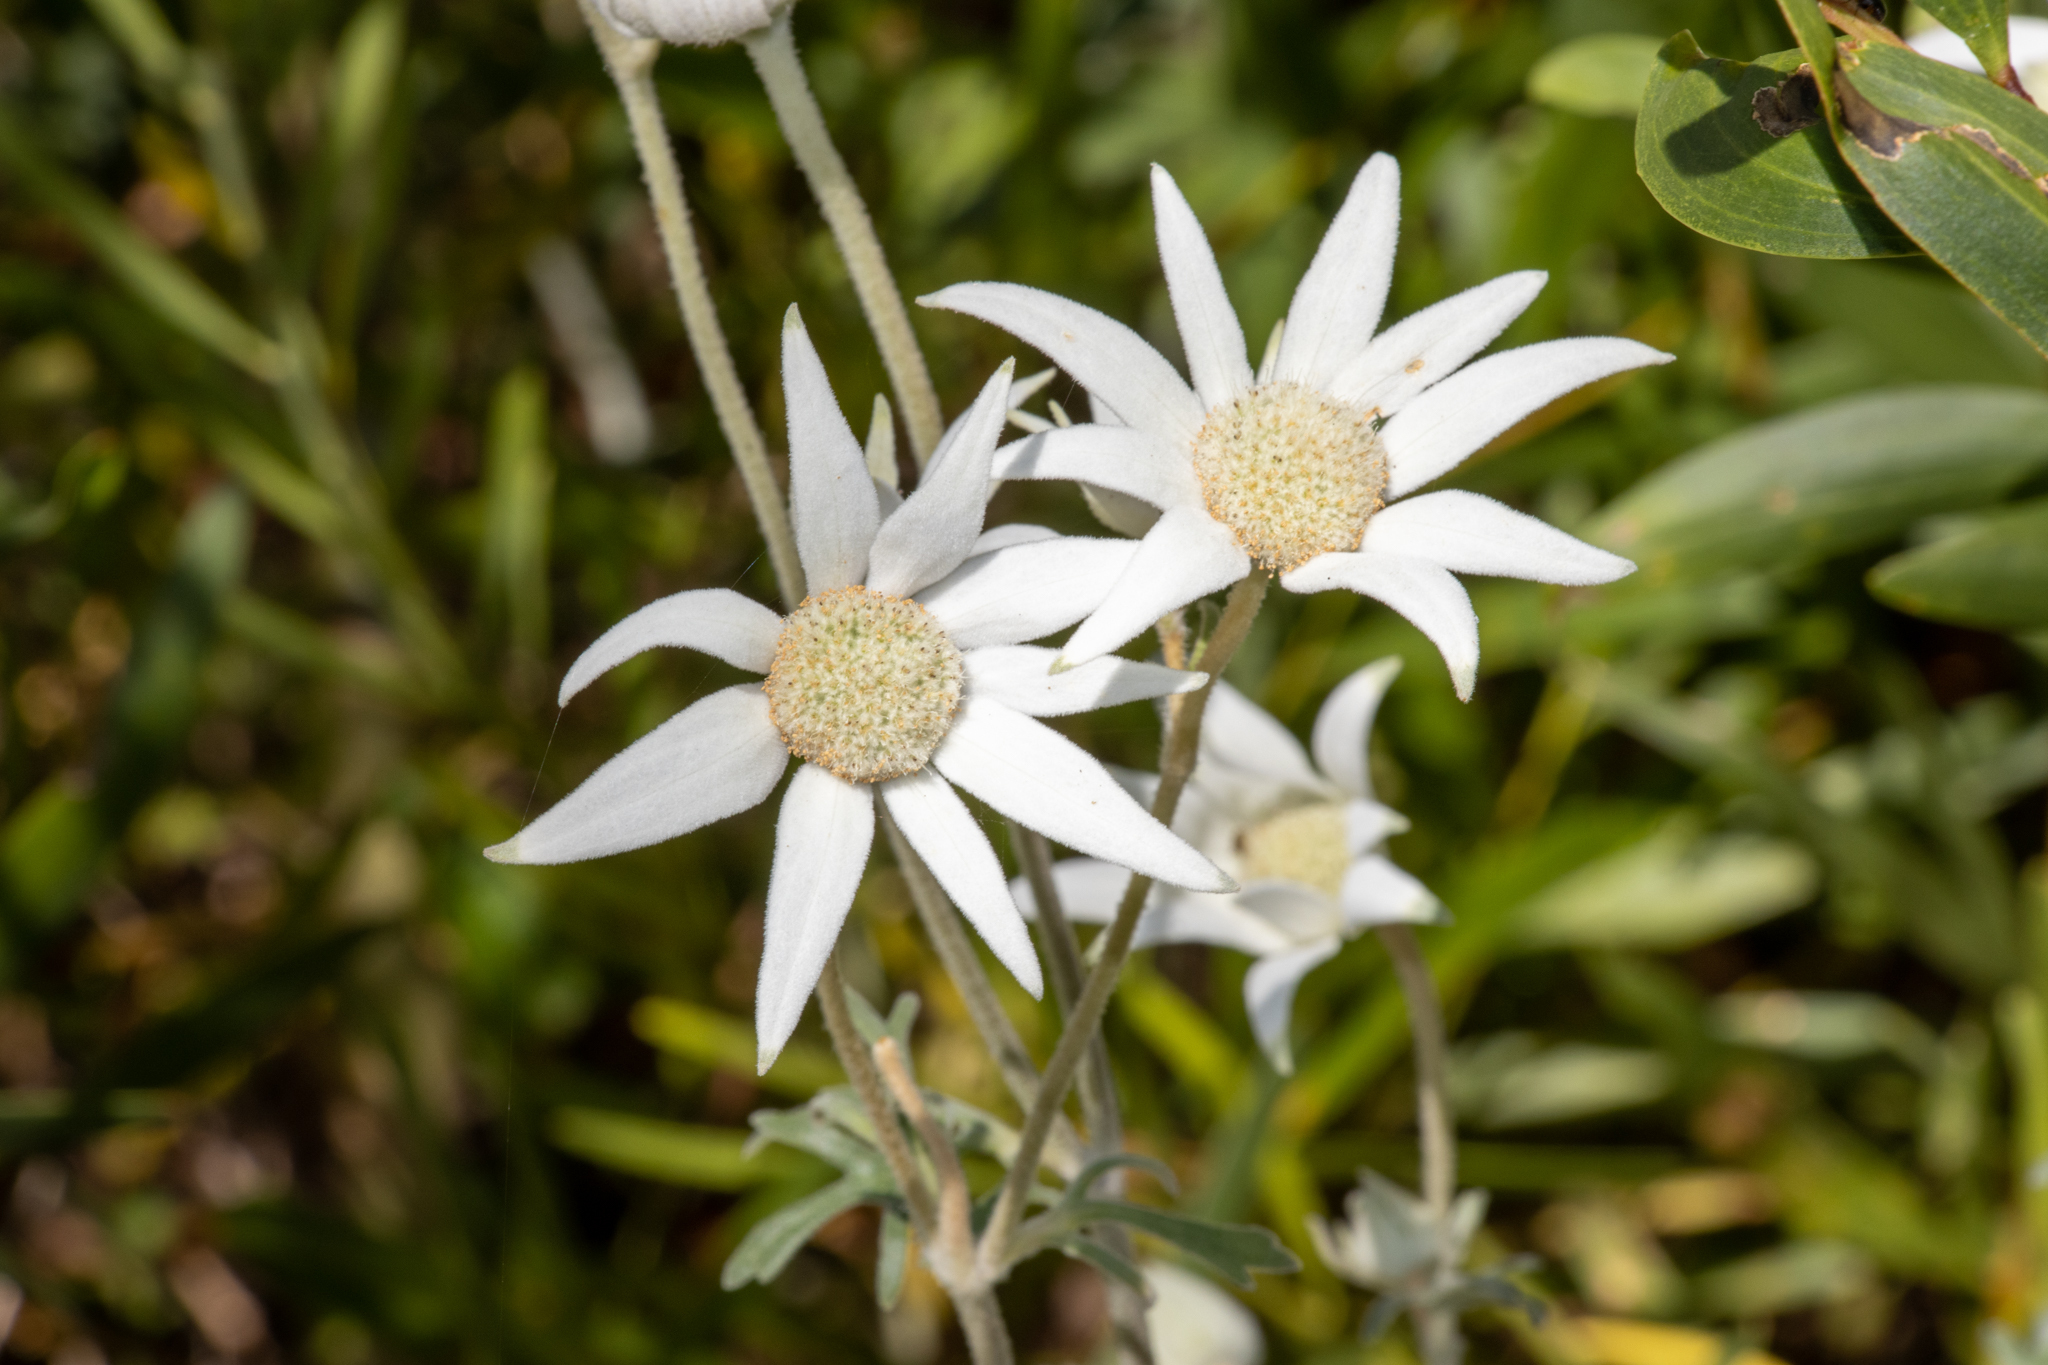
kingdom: Plantae
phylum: Tracheophyta
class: Magnoliopsida
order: Apiales
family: Apiaceae
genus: Actinotus
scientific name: Actinotus helianthi
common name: Flannel-flower
